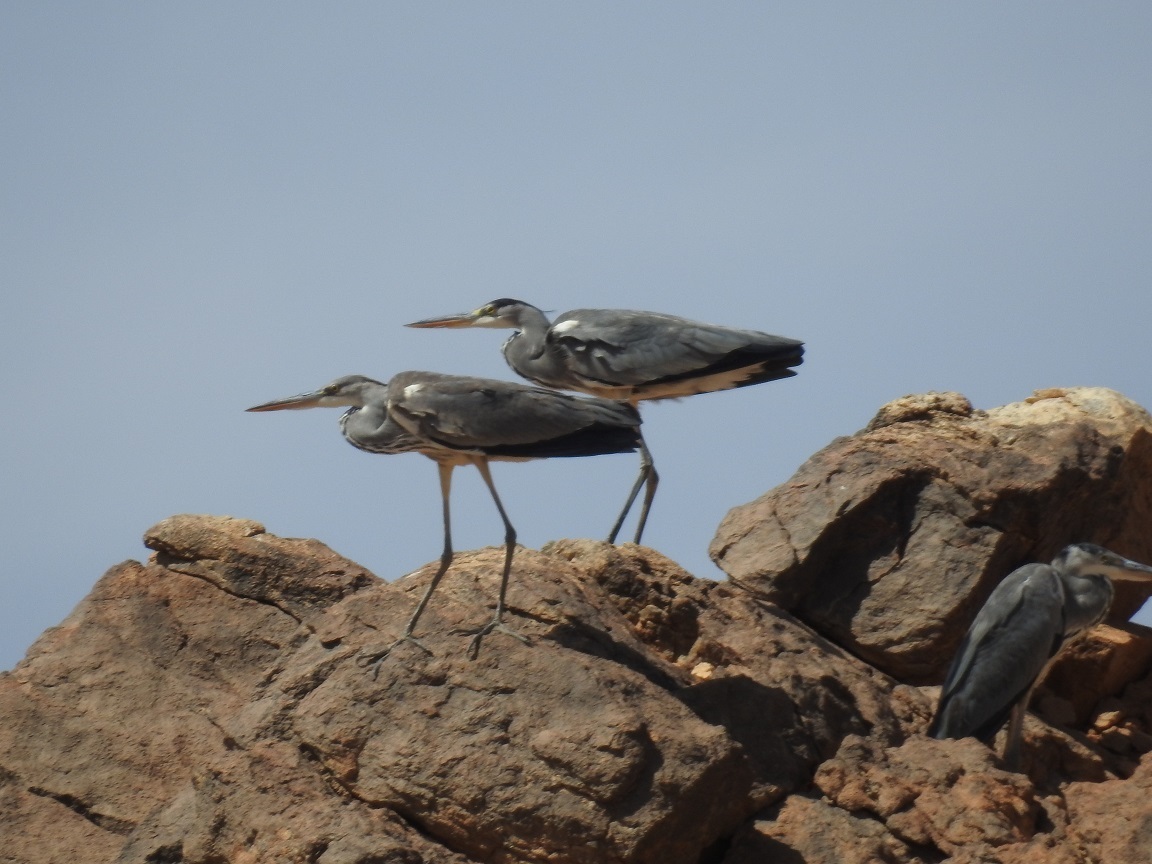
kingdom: Animalia
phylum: Chordata
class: Aves
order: Pelecaniformes
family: Ardeidae
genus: Ardea
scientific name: Ardea cinerea
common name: Grey heron
